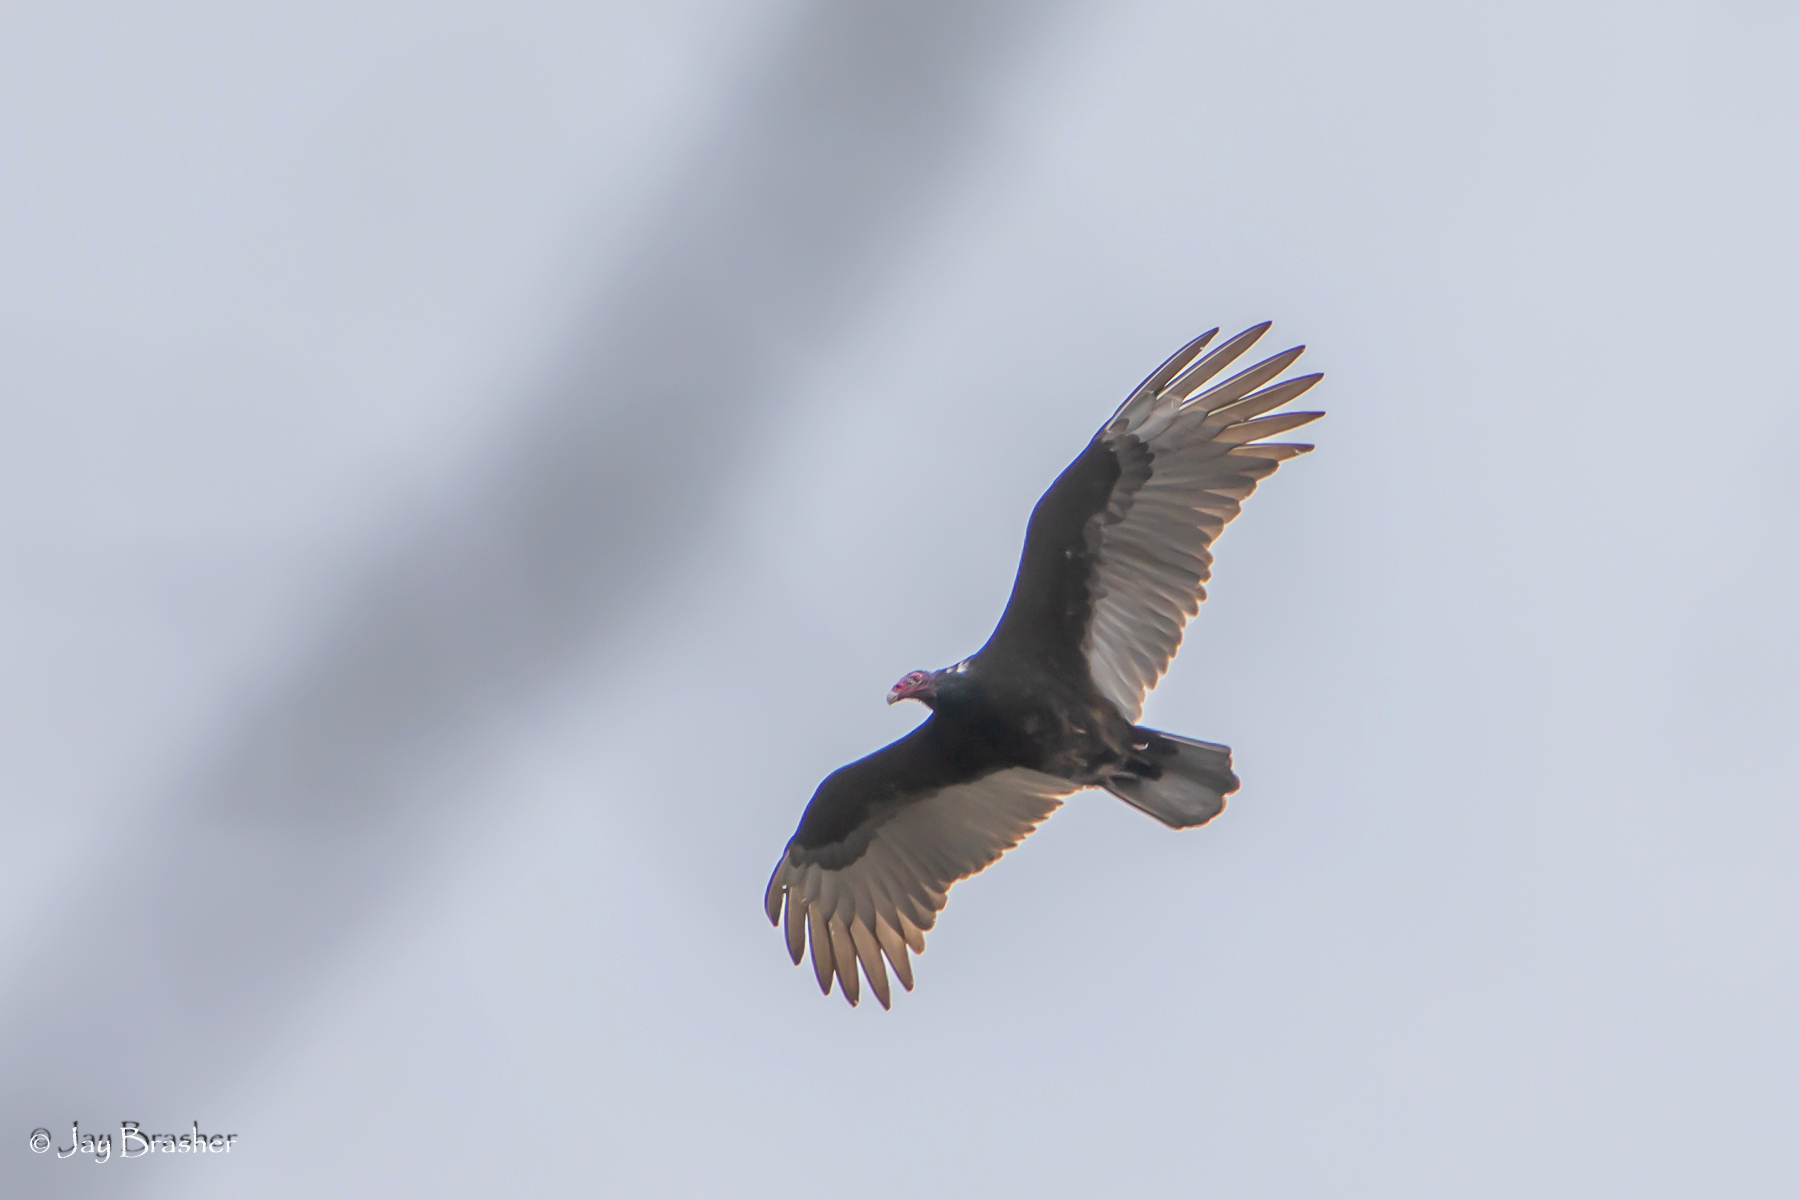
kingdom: Animalia
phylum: Chordata
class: Aves
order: Accipitriformes
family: Cathartidae
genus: Cathartes
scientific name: Cathartes aura
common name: Turkey vulture
